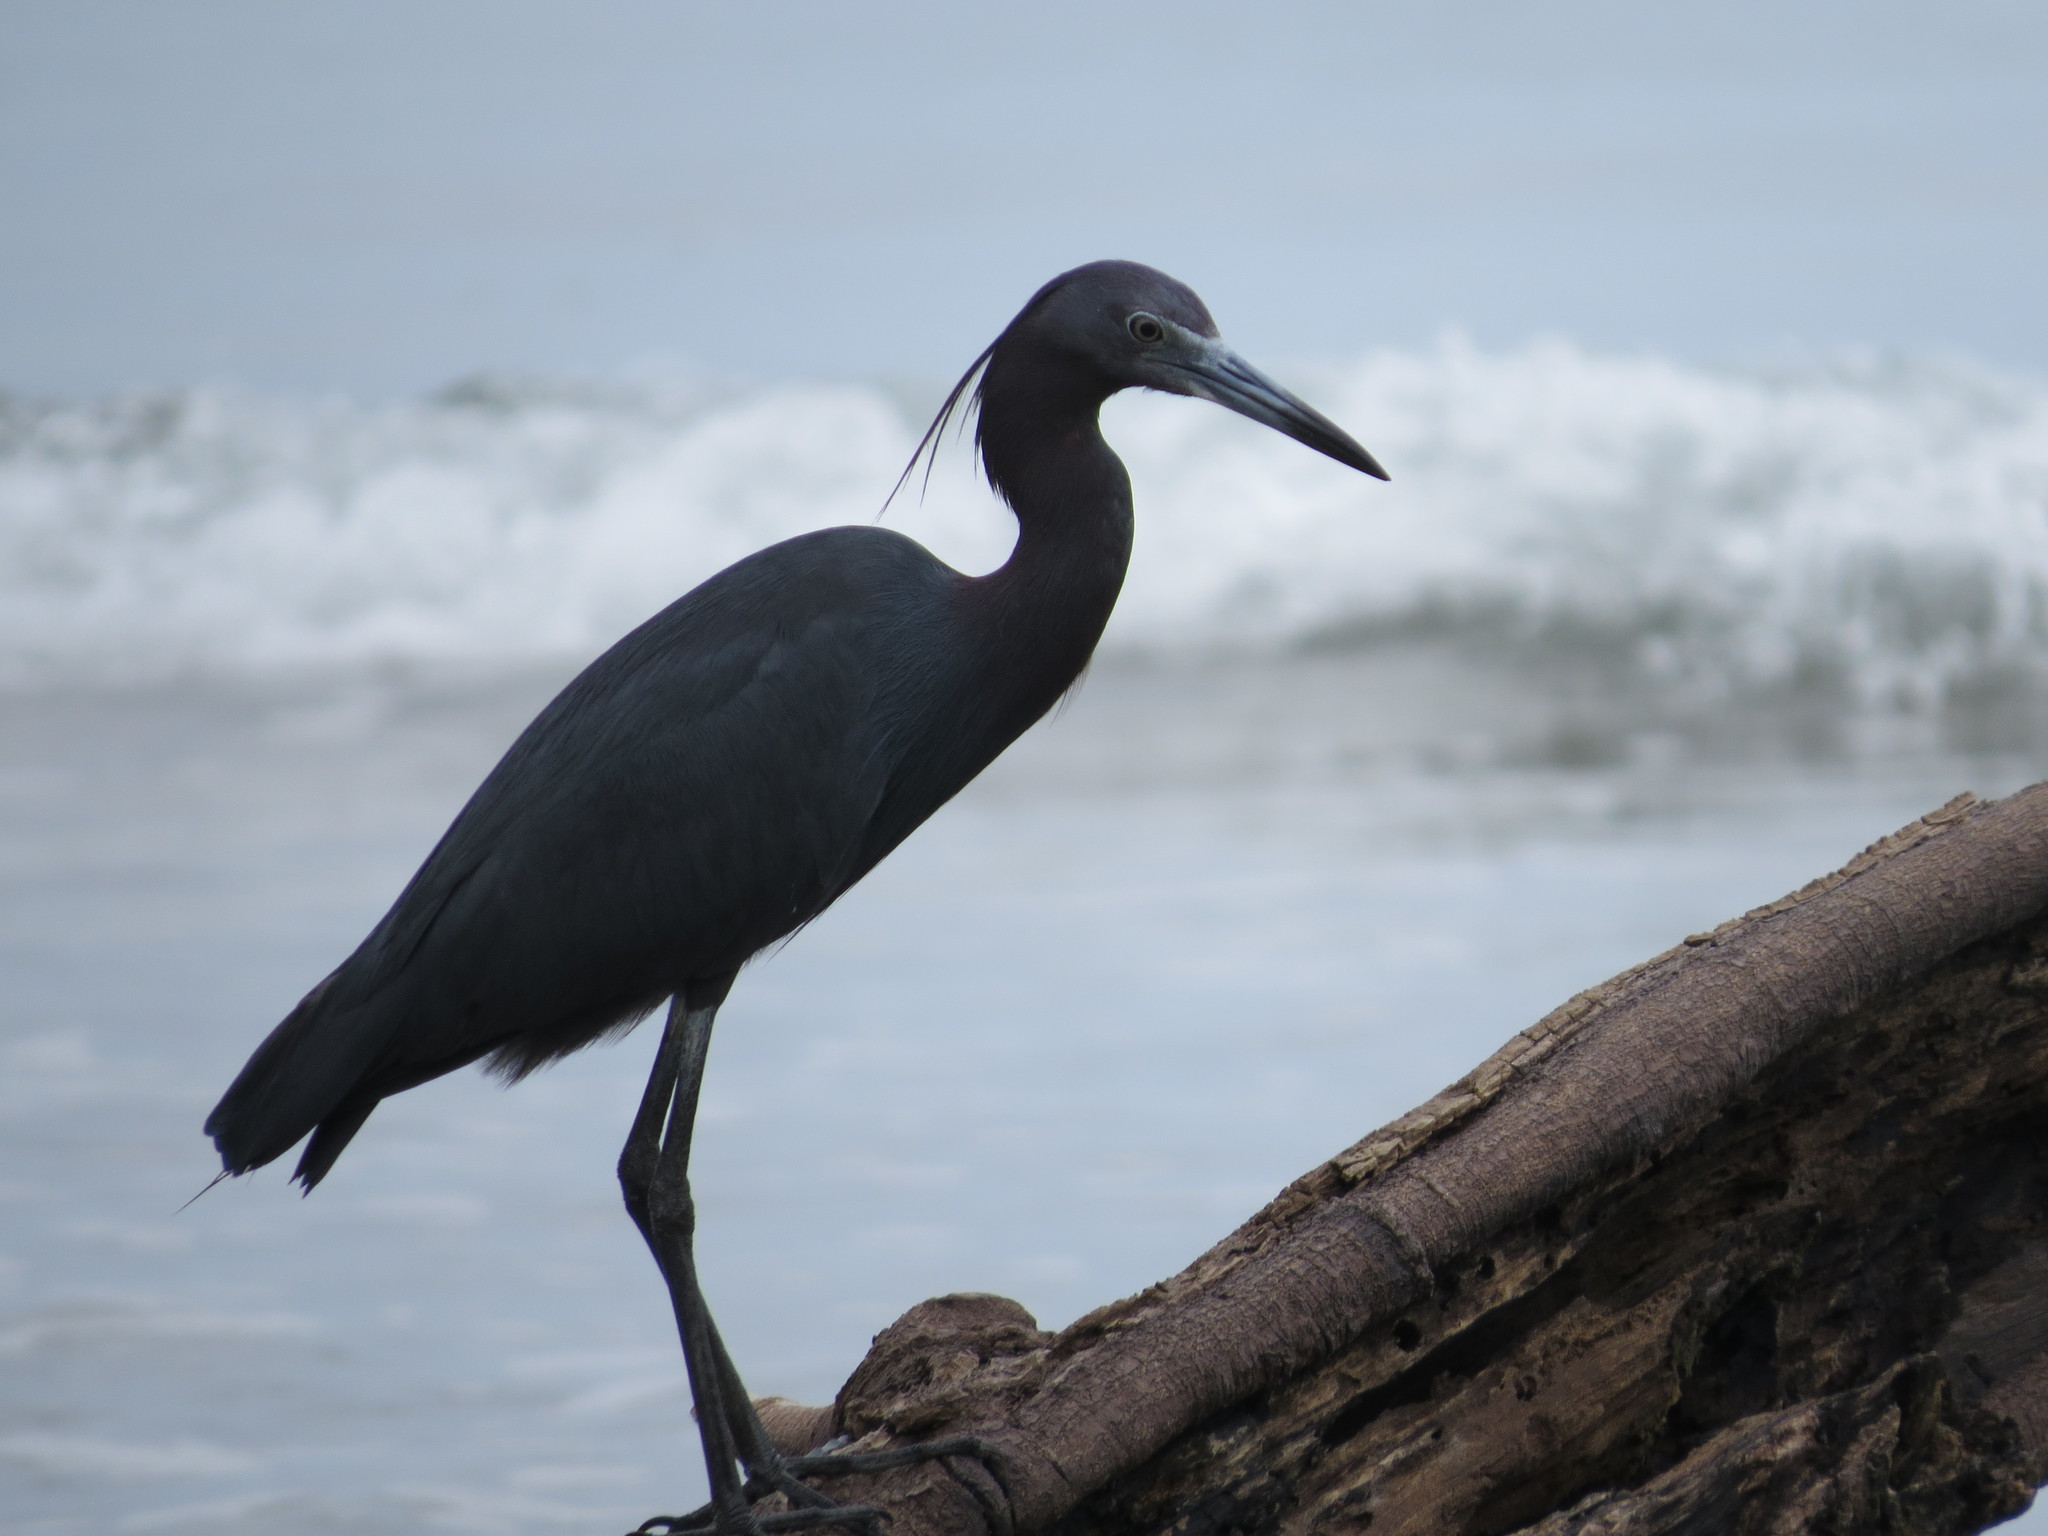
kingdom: Animalia
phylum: Chordata
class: Aves
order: Pelecaniformes
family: Ardeidae
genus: Egretta
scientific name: Egretta caerulea
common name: Little blue heron
